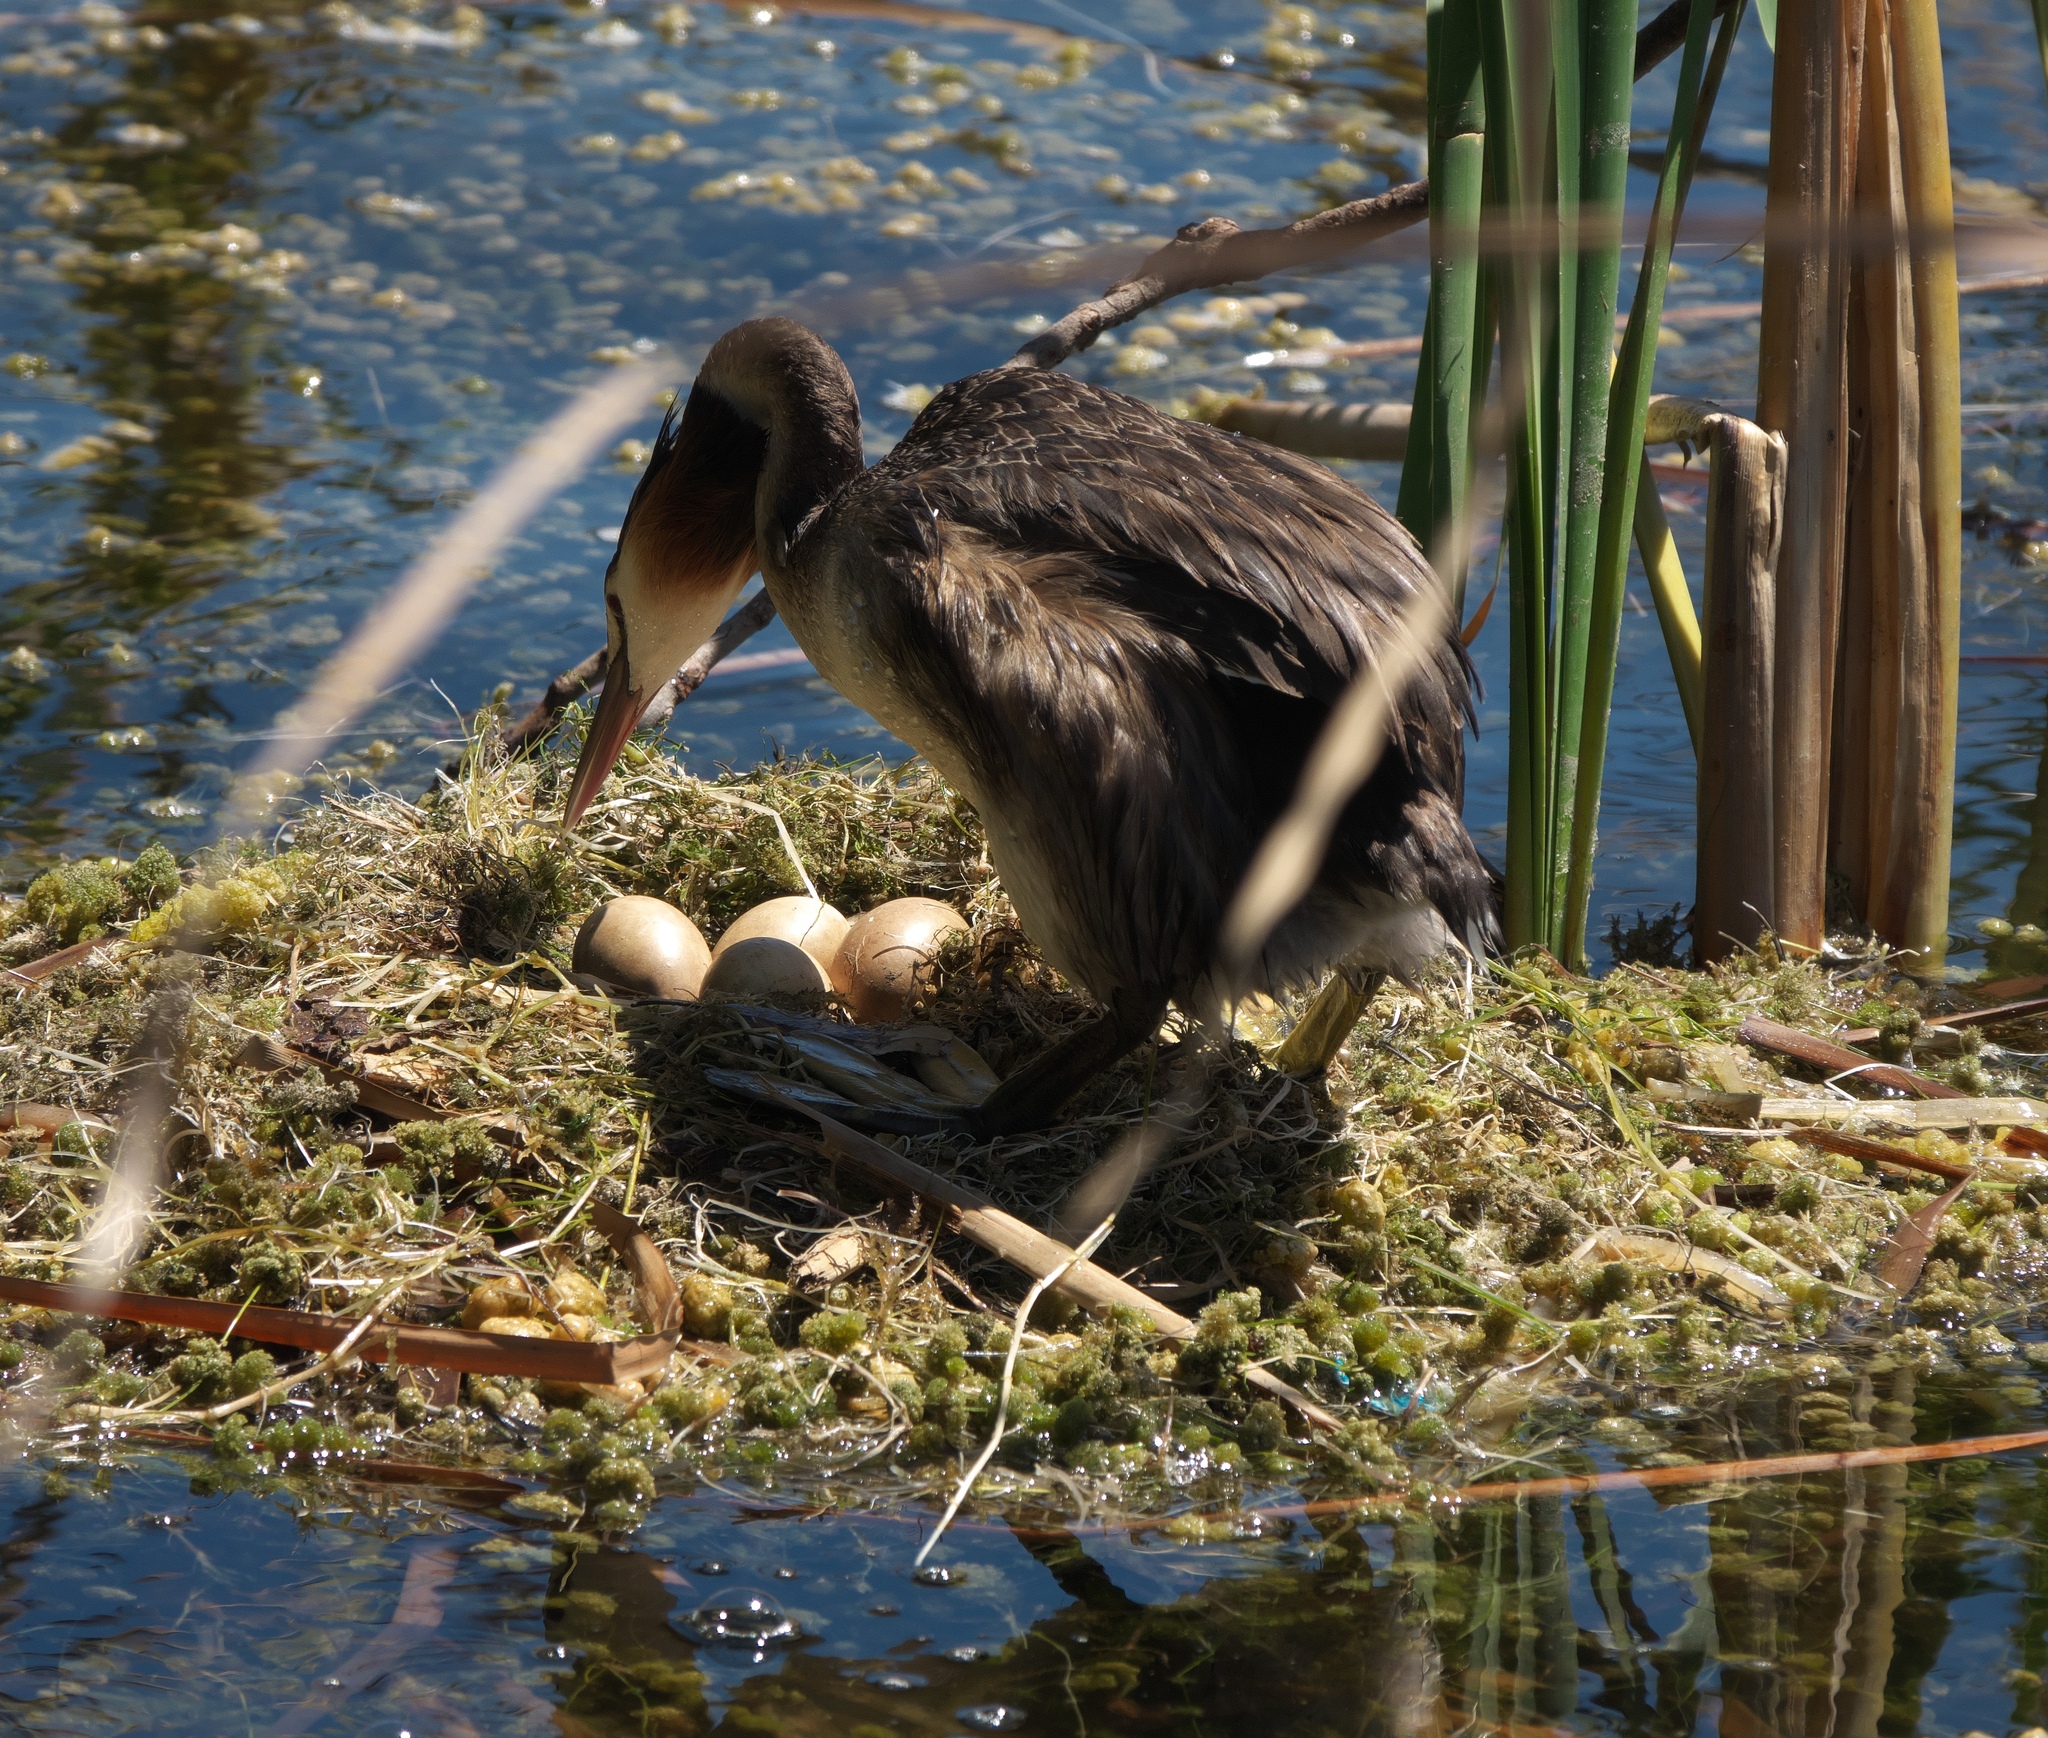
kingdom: Animalia
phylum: Chordata
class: Aves
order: Podicipediformes
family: Podicipedidae
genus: Podiceps
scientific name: Podiceps cristatus
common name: Great crested grebe
